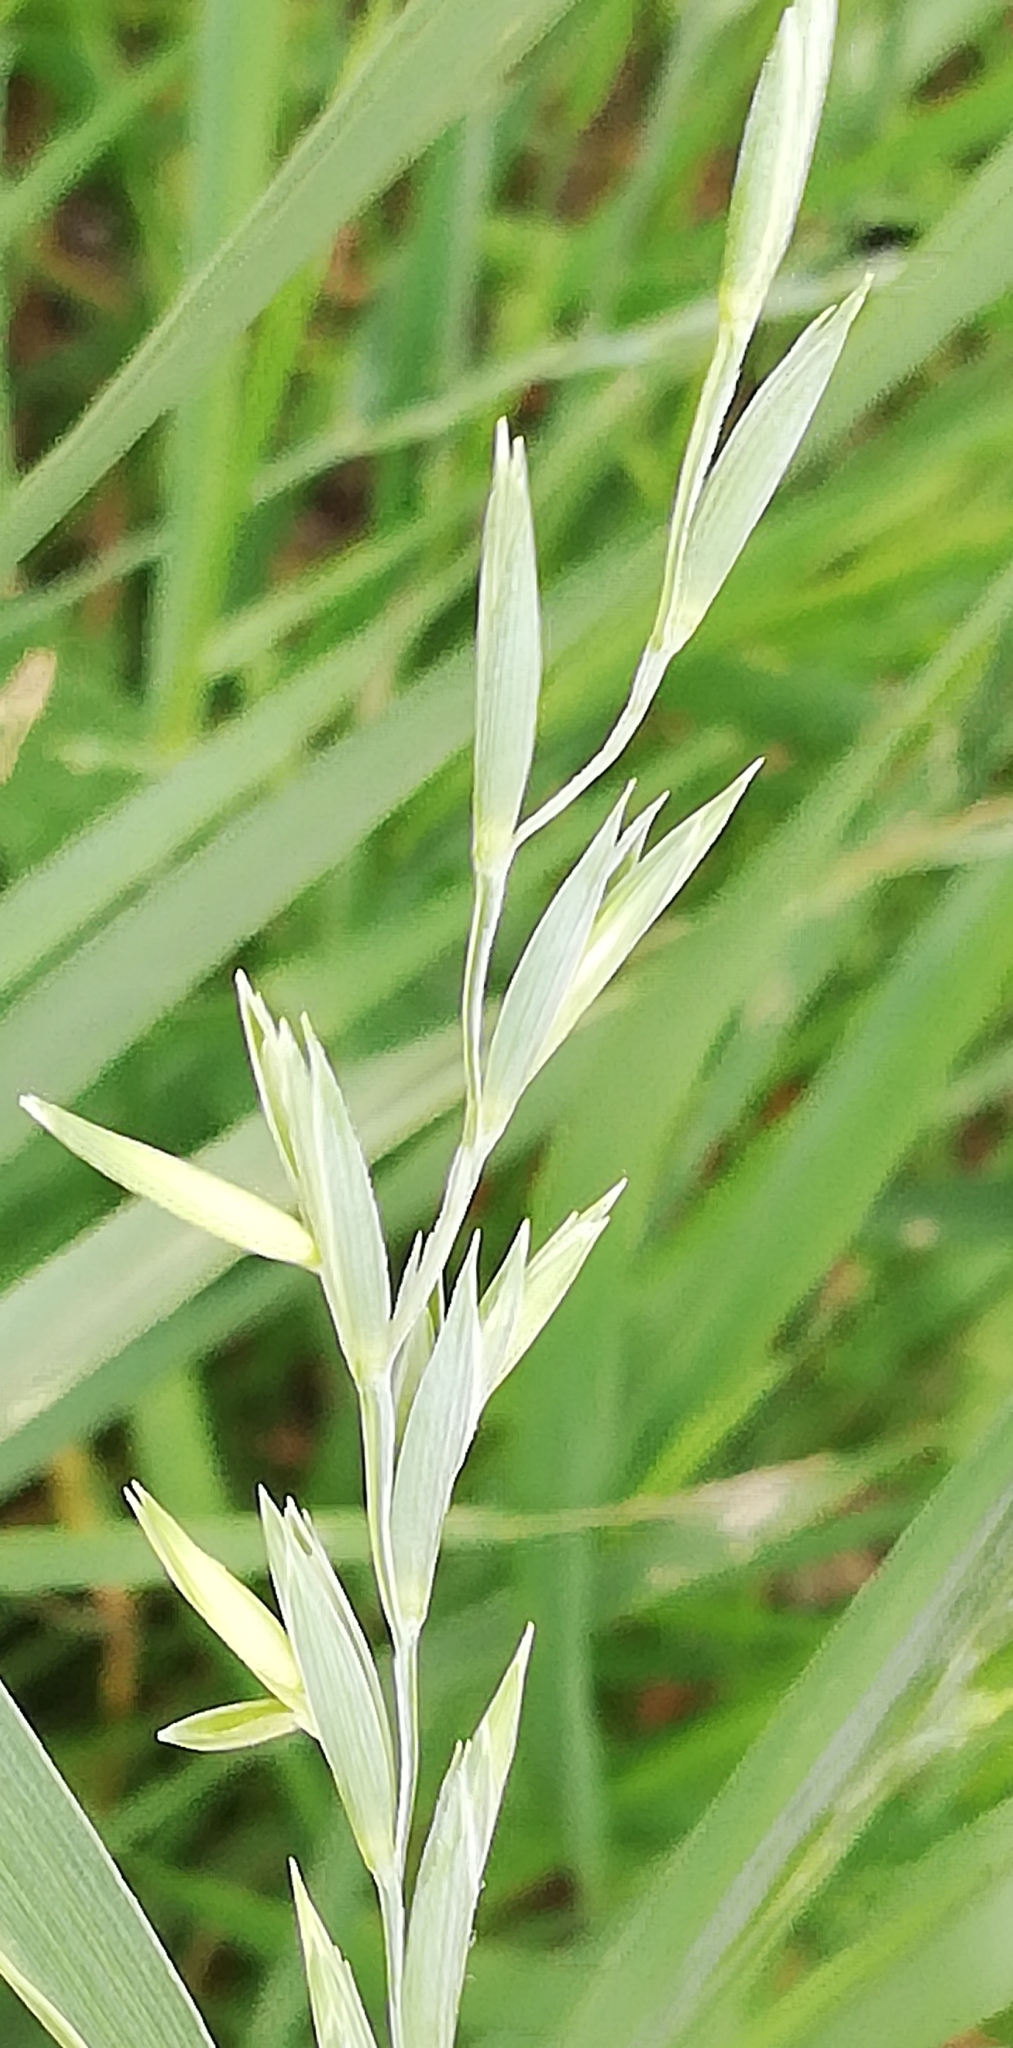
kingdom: Plantae
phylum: Tracheophyta
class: Liliopsida
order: Poales
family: Poaceae
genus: Elymus
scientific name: Elymus repens
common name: Quackgrass
